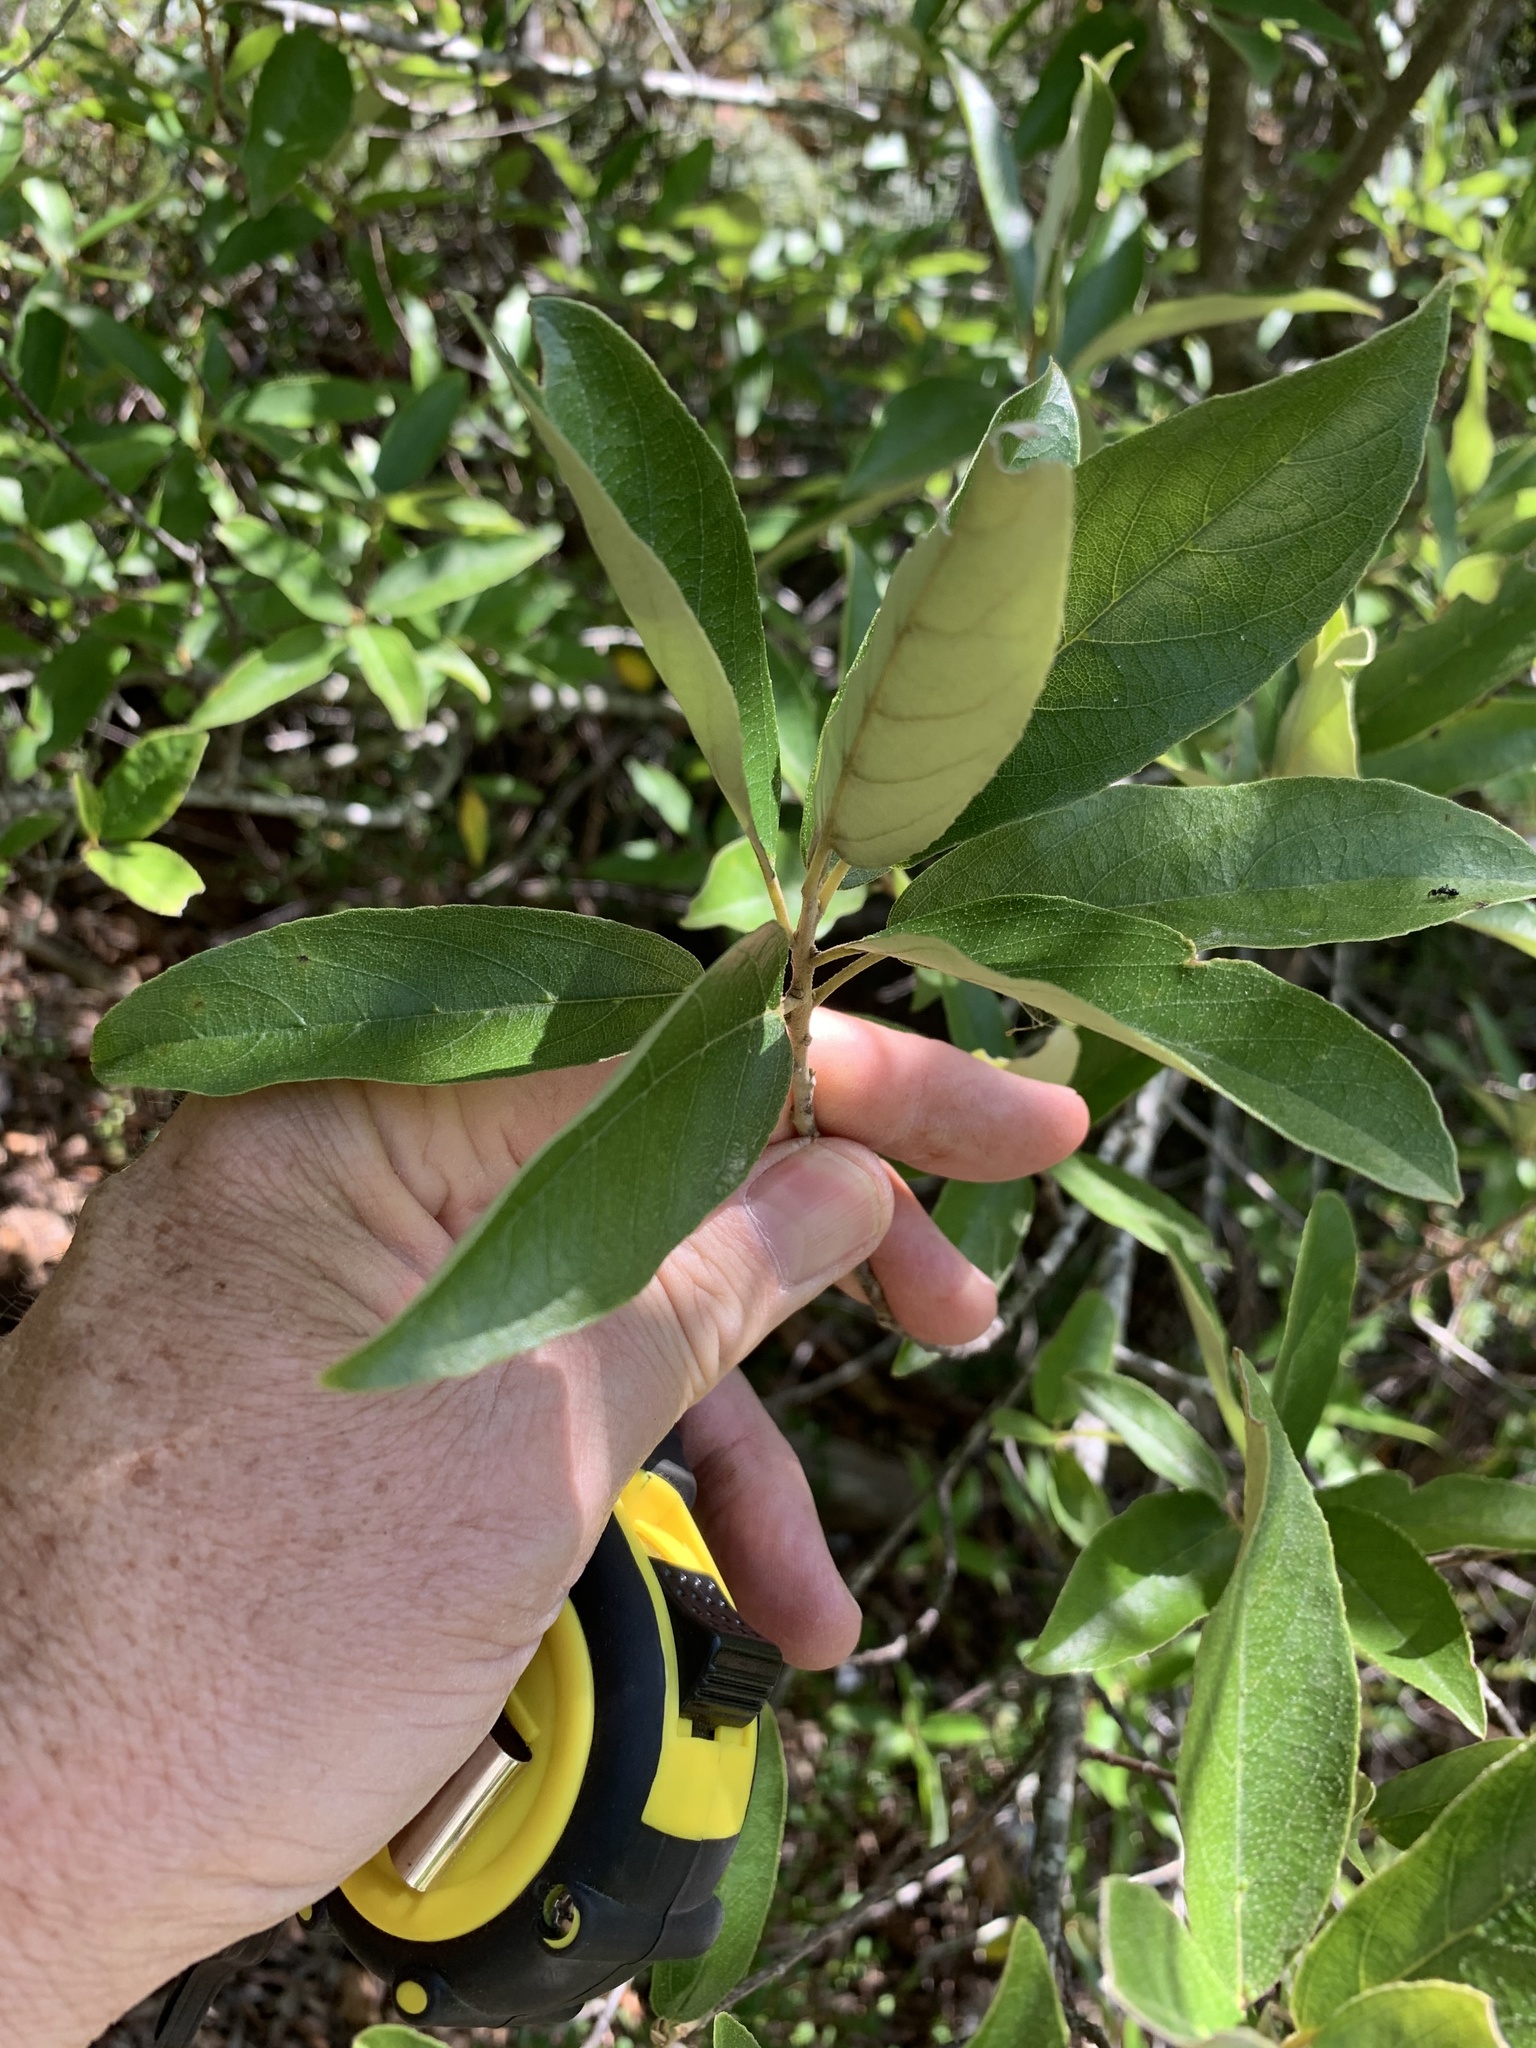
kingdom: Plantae
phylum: Tracheophyta
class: Magnoliopsida
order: Malpighiales
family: Achariaceae
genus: Kiggelaria
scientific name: Kiggelaria africana
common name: Wild peach
